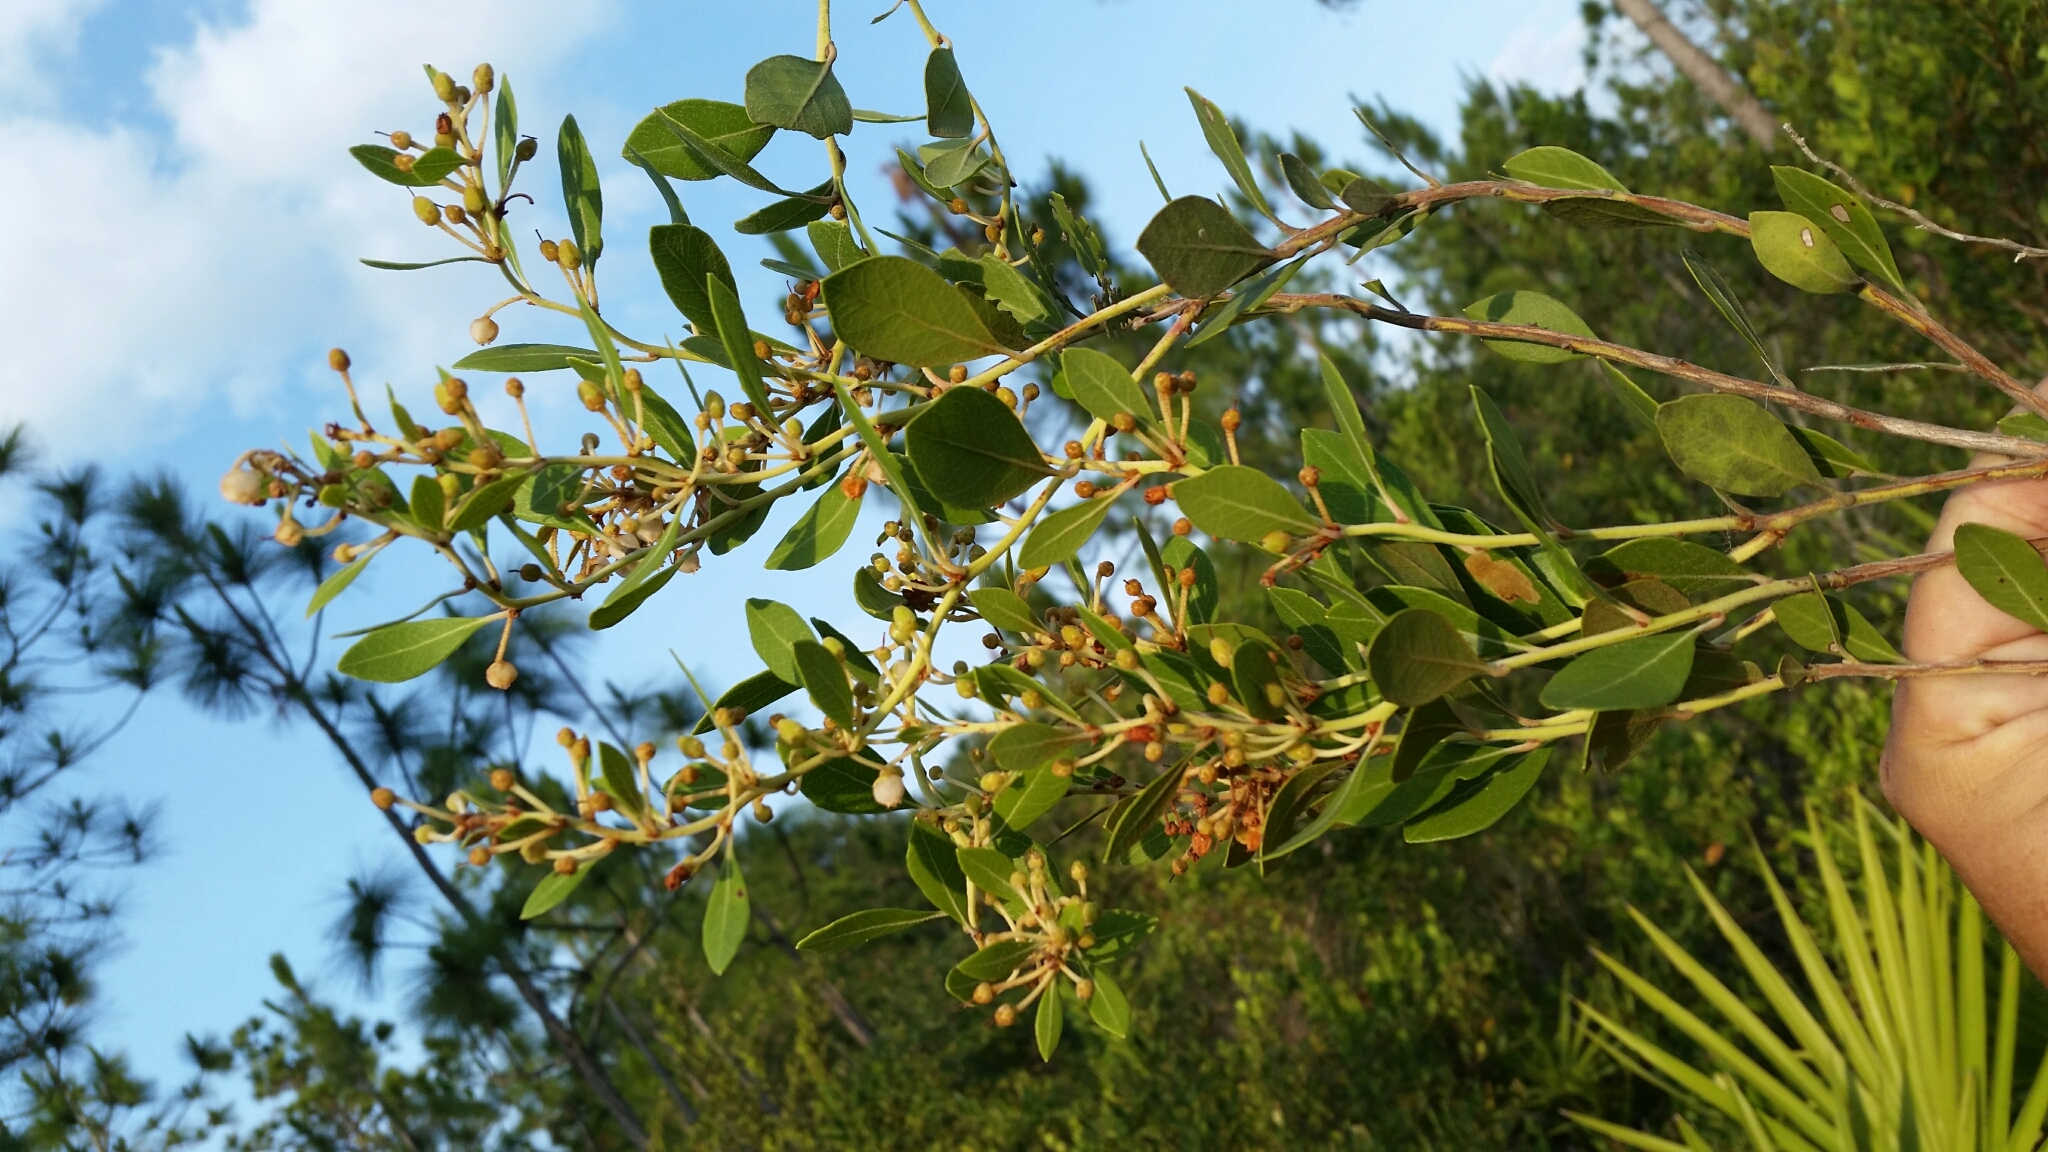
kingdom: Plantae
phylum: Tracheophyta
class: Magnoliopsida
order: Ericales
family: Ericaceae
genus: Lyonia
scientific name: Lyonia fruticosa
